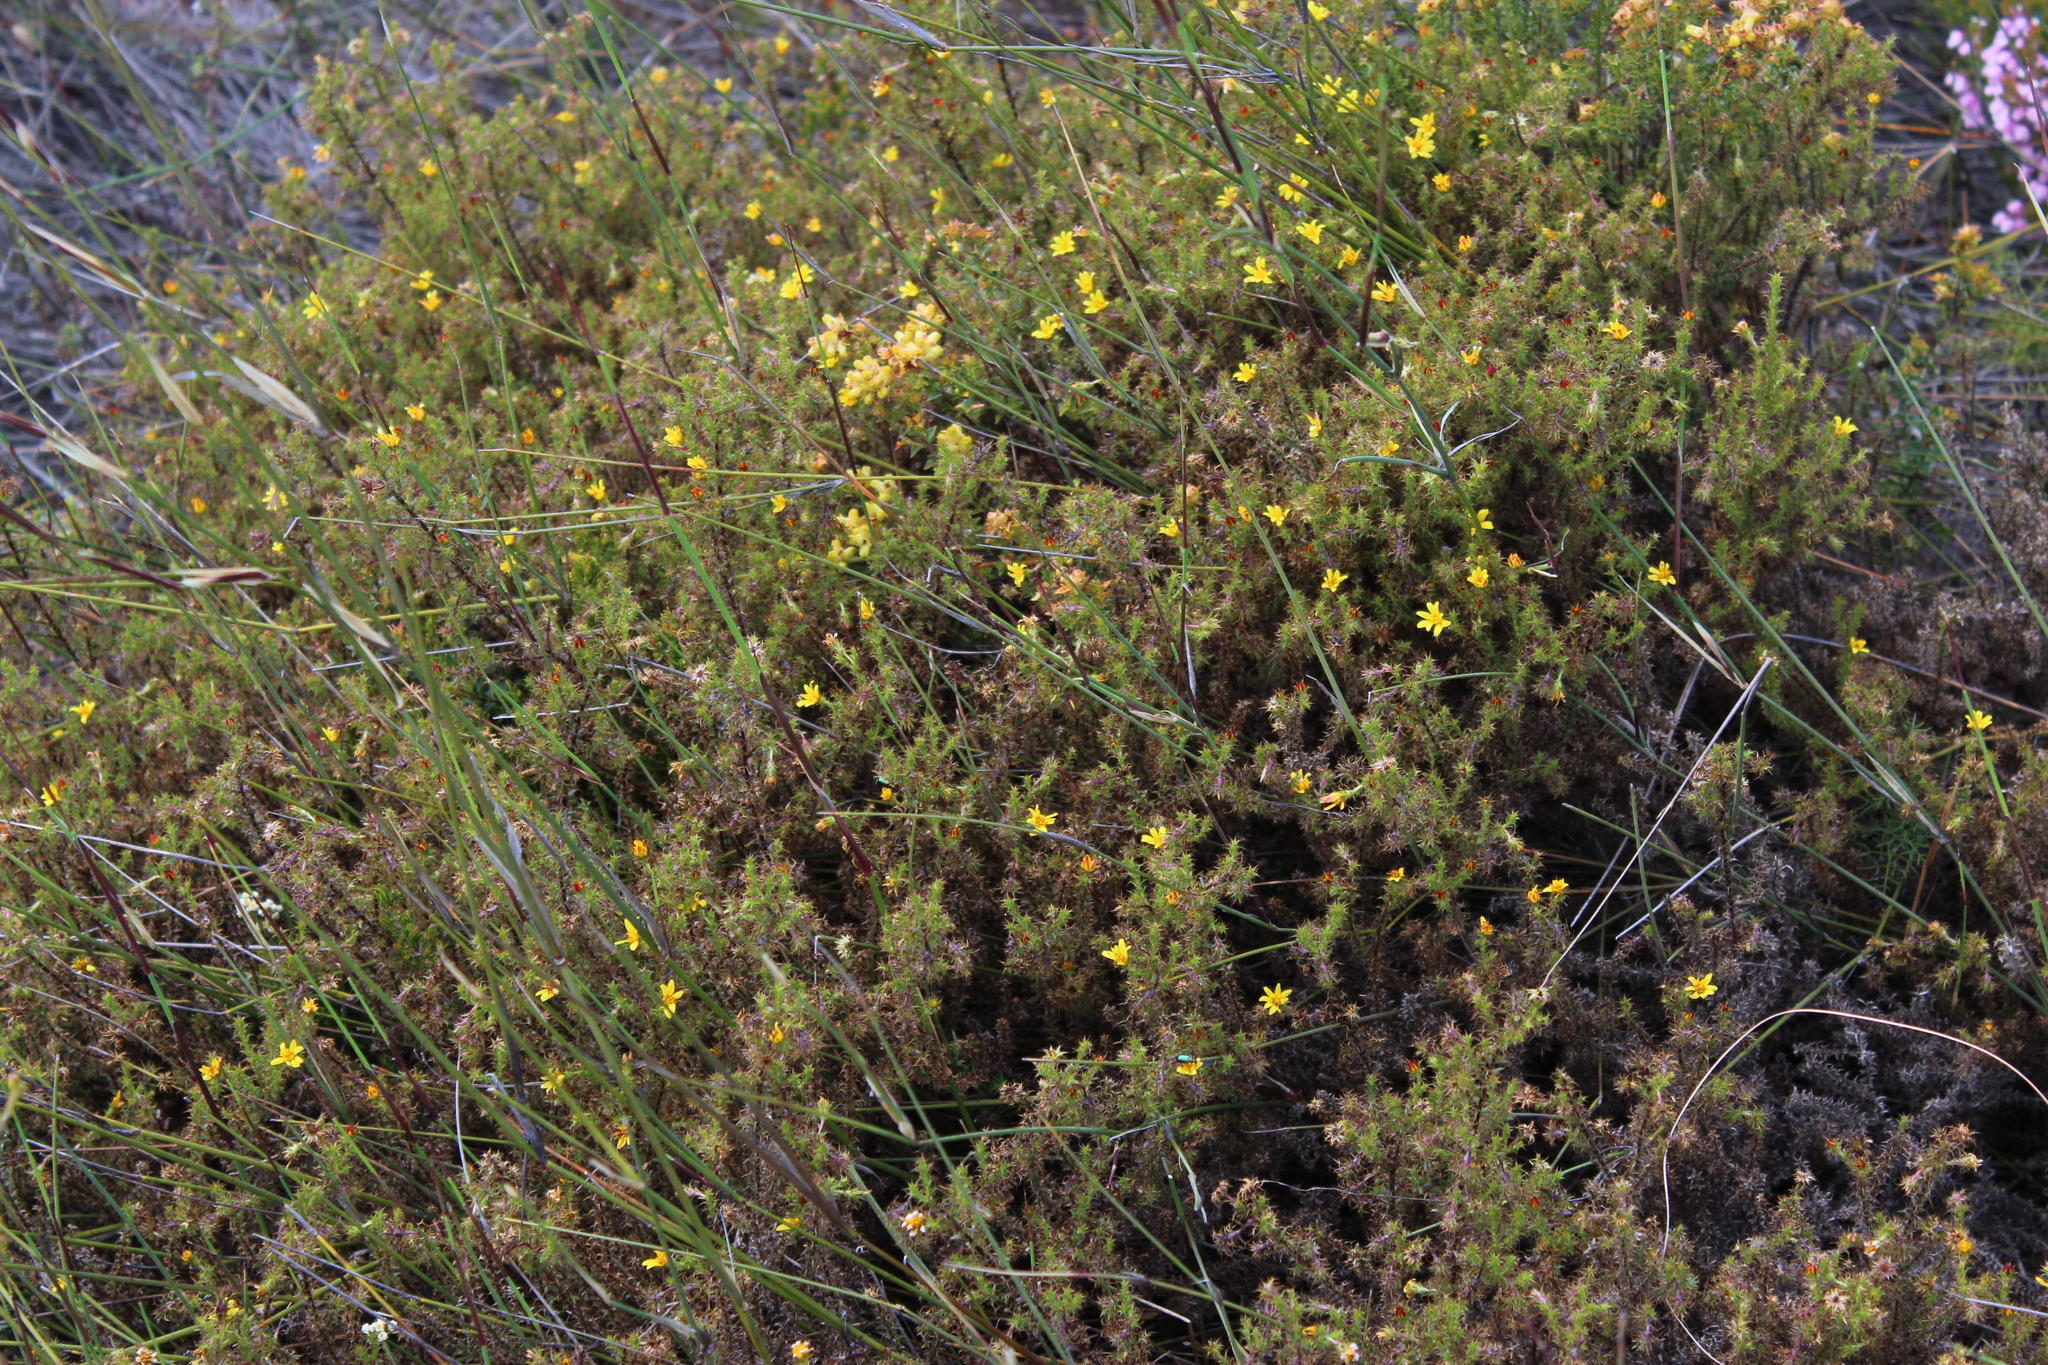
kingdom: Plantae
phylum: Tracheophyta
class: Magnoliopsida
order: Asterales
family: Asteraceae
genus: Cullumia
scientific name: Cullumia setosa
